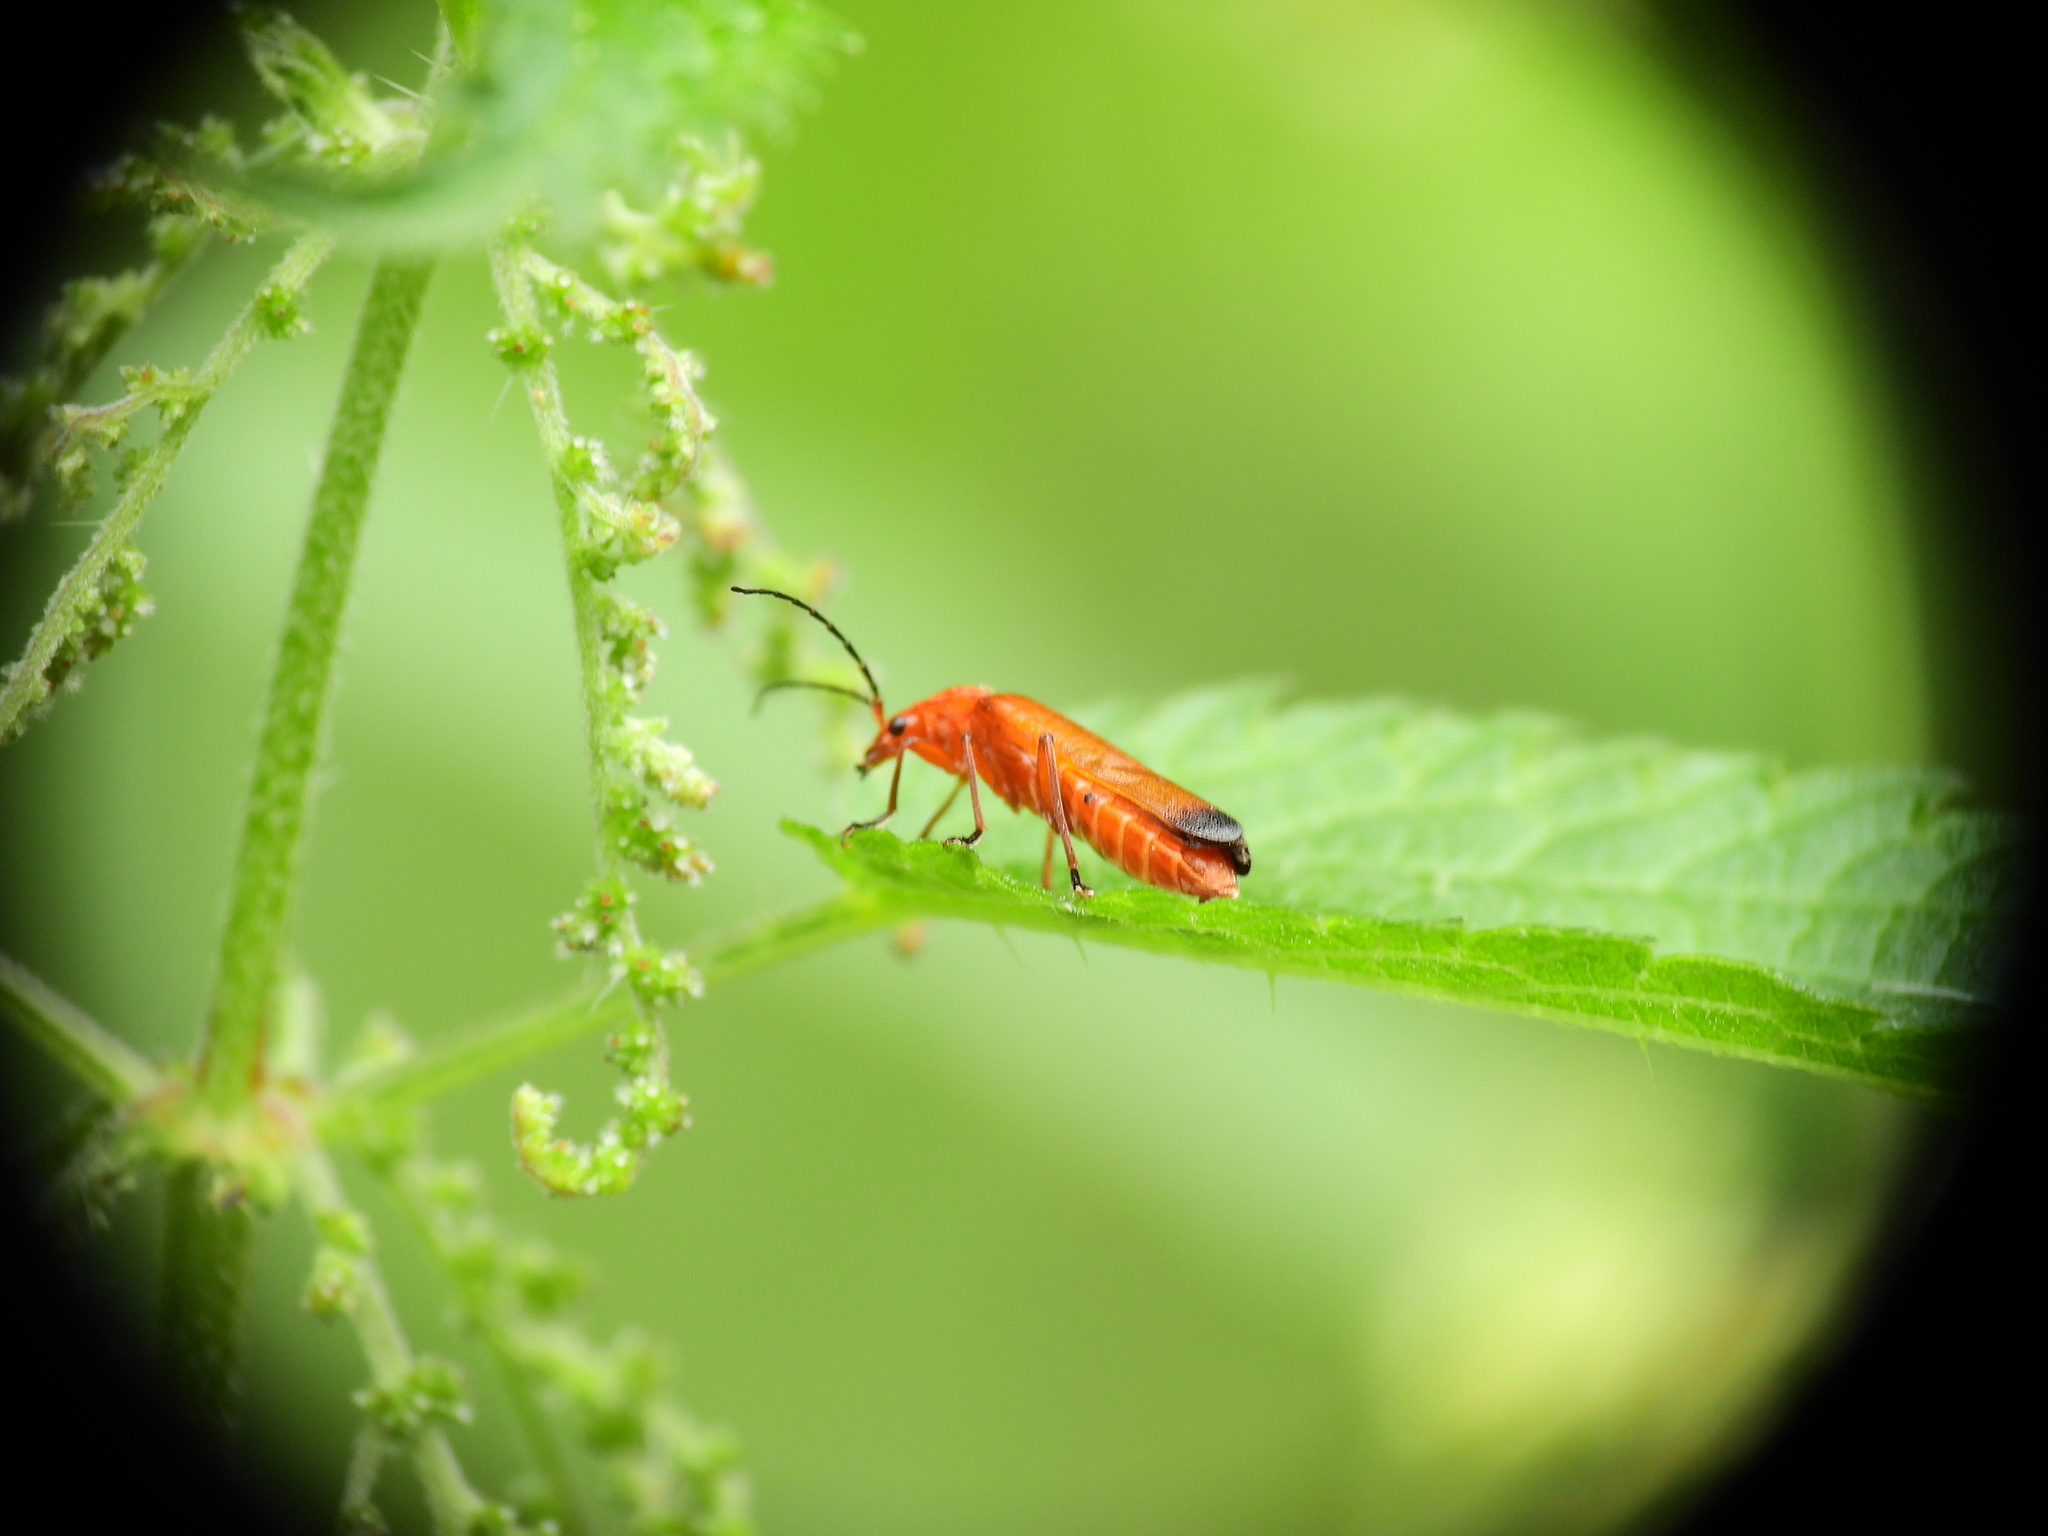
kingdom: Animalia
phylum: Arthropoda
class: Insecta
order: Coleoptera
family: Cantharidae
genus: Rhagonycha
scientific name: Rhagonycha fulva
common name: Common red soldier beetle
